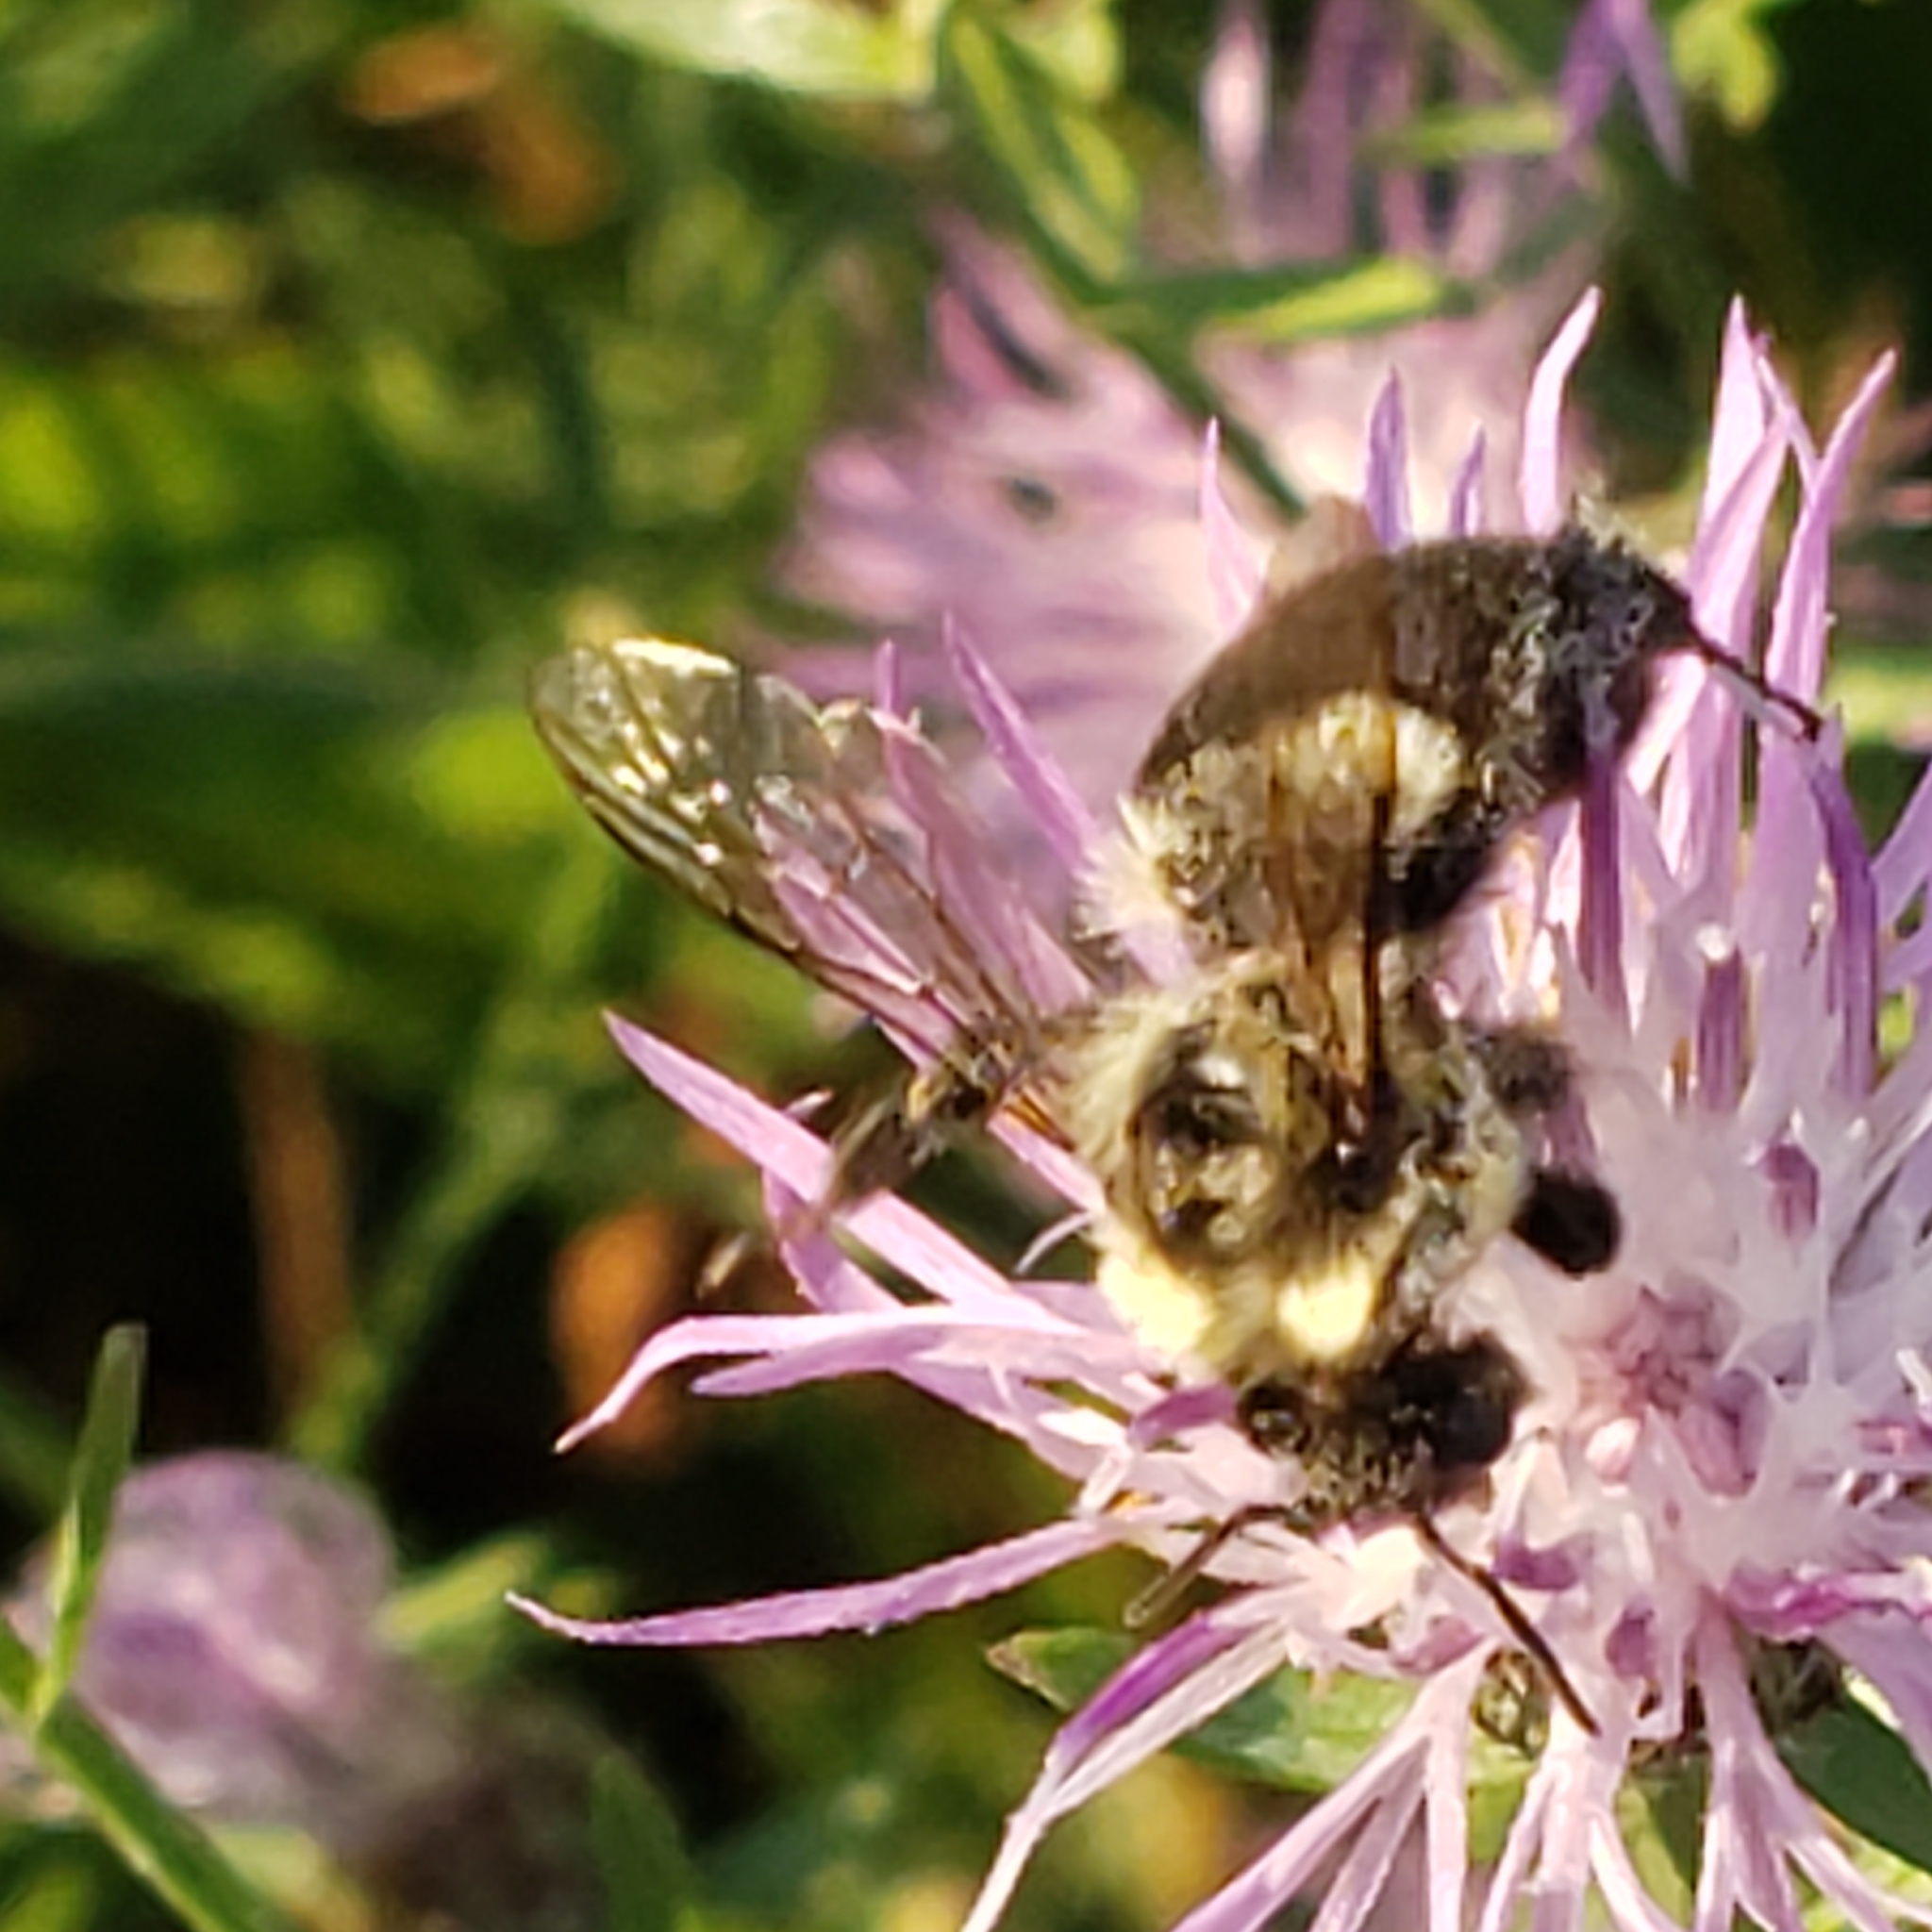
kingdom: Animalia
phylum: Arthropoda
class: Insecta
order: Hymenoptera
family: Apidae
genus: Bombus
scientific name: Bombus impatiens
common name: Common eastern bumble bee
